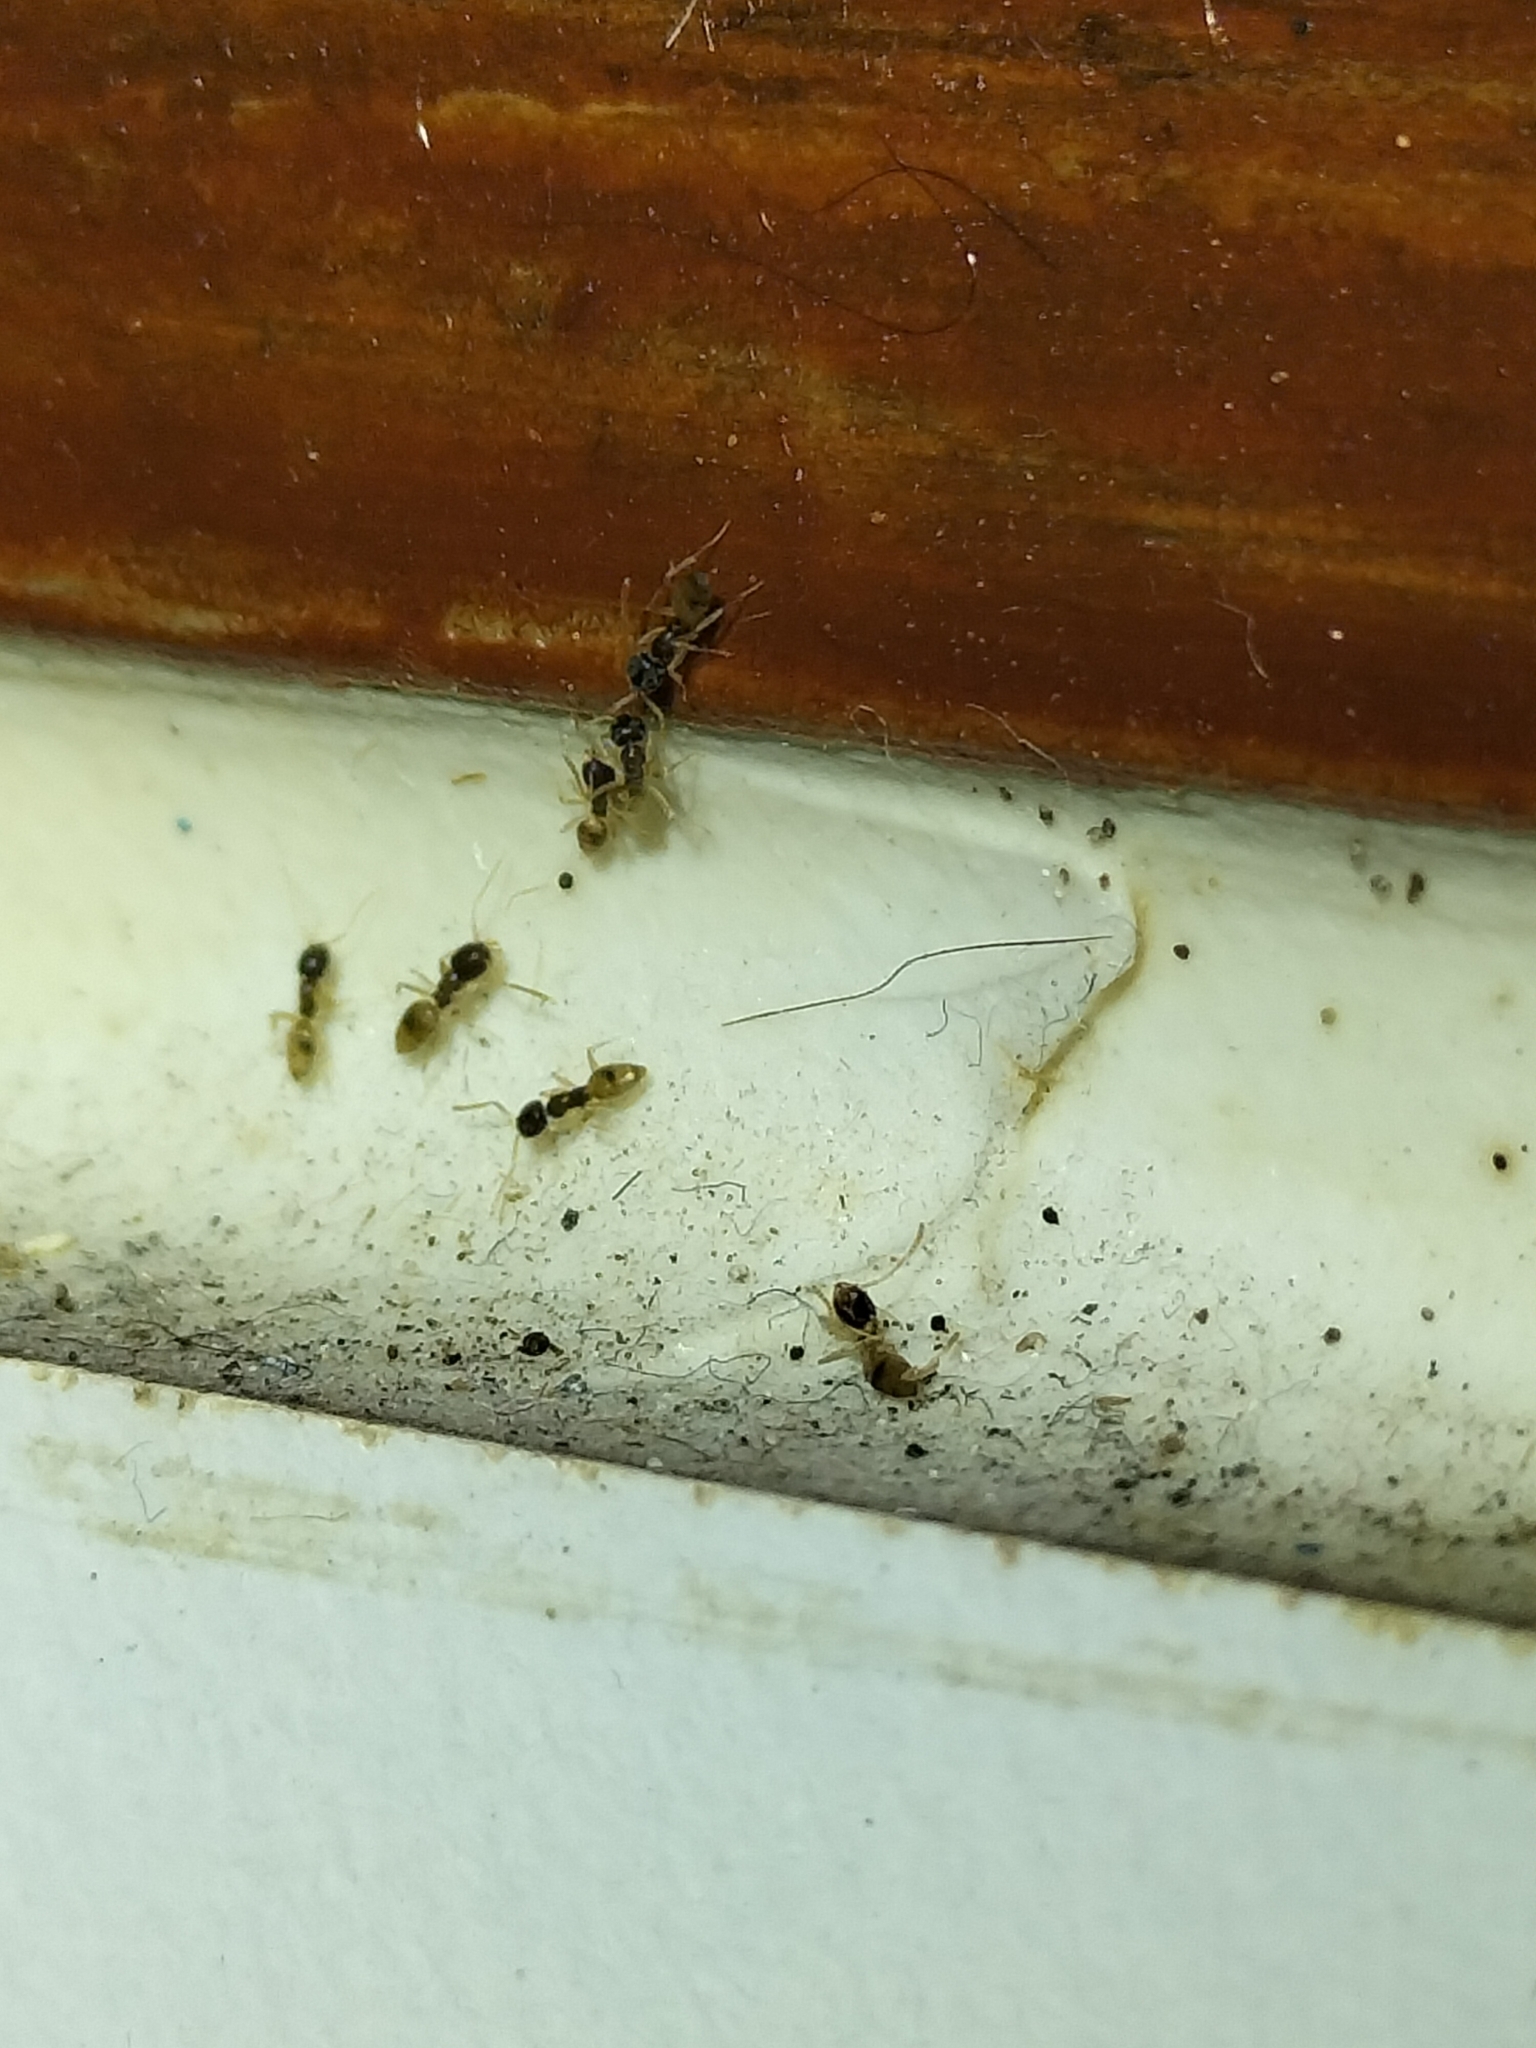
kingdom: Animalia
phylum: Arthropoda
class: Insecta
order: Hymenoptera
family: Formicidae
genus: Tapinoma
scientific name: Tapinoma melanocephalum
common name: Ghost ant
